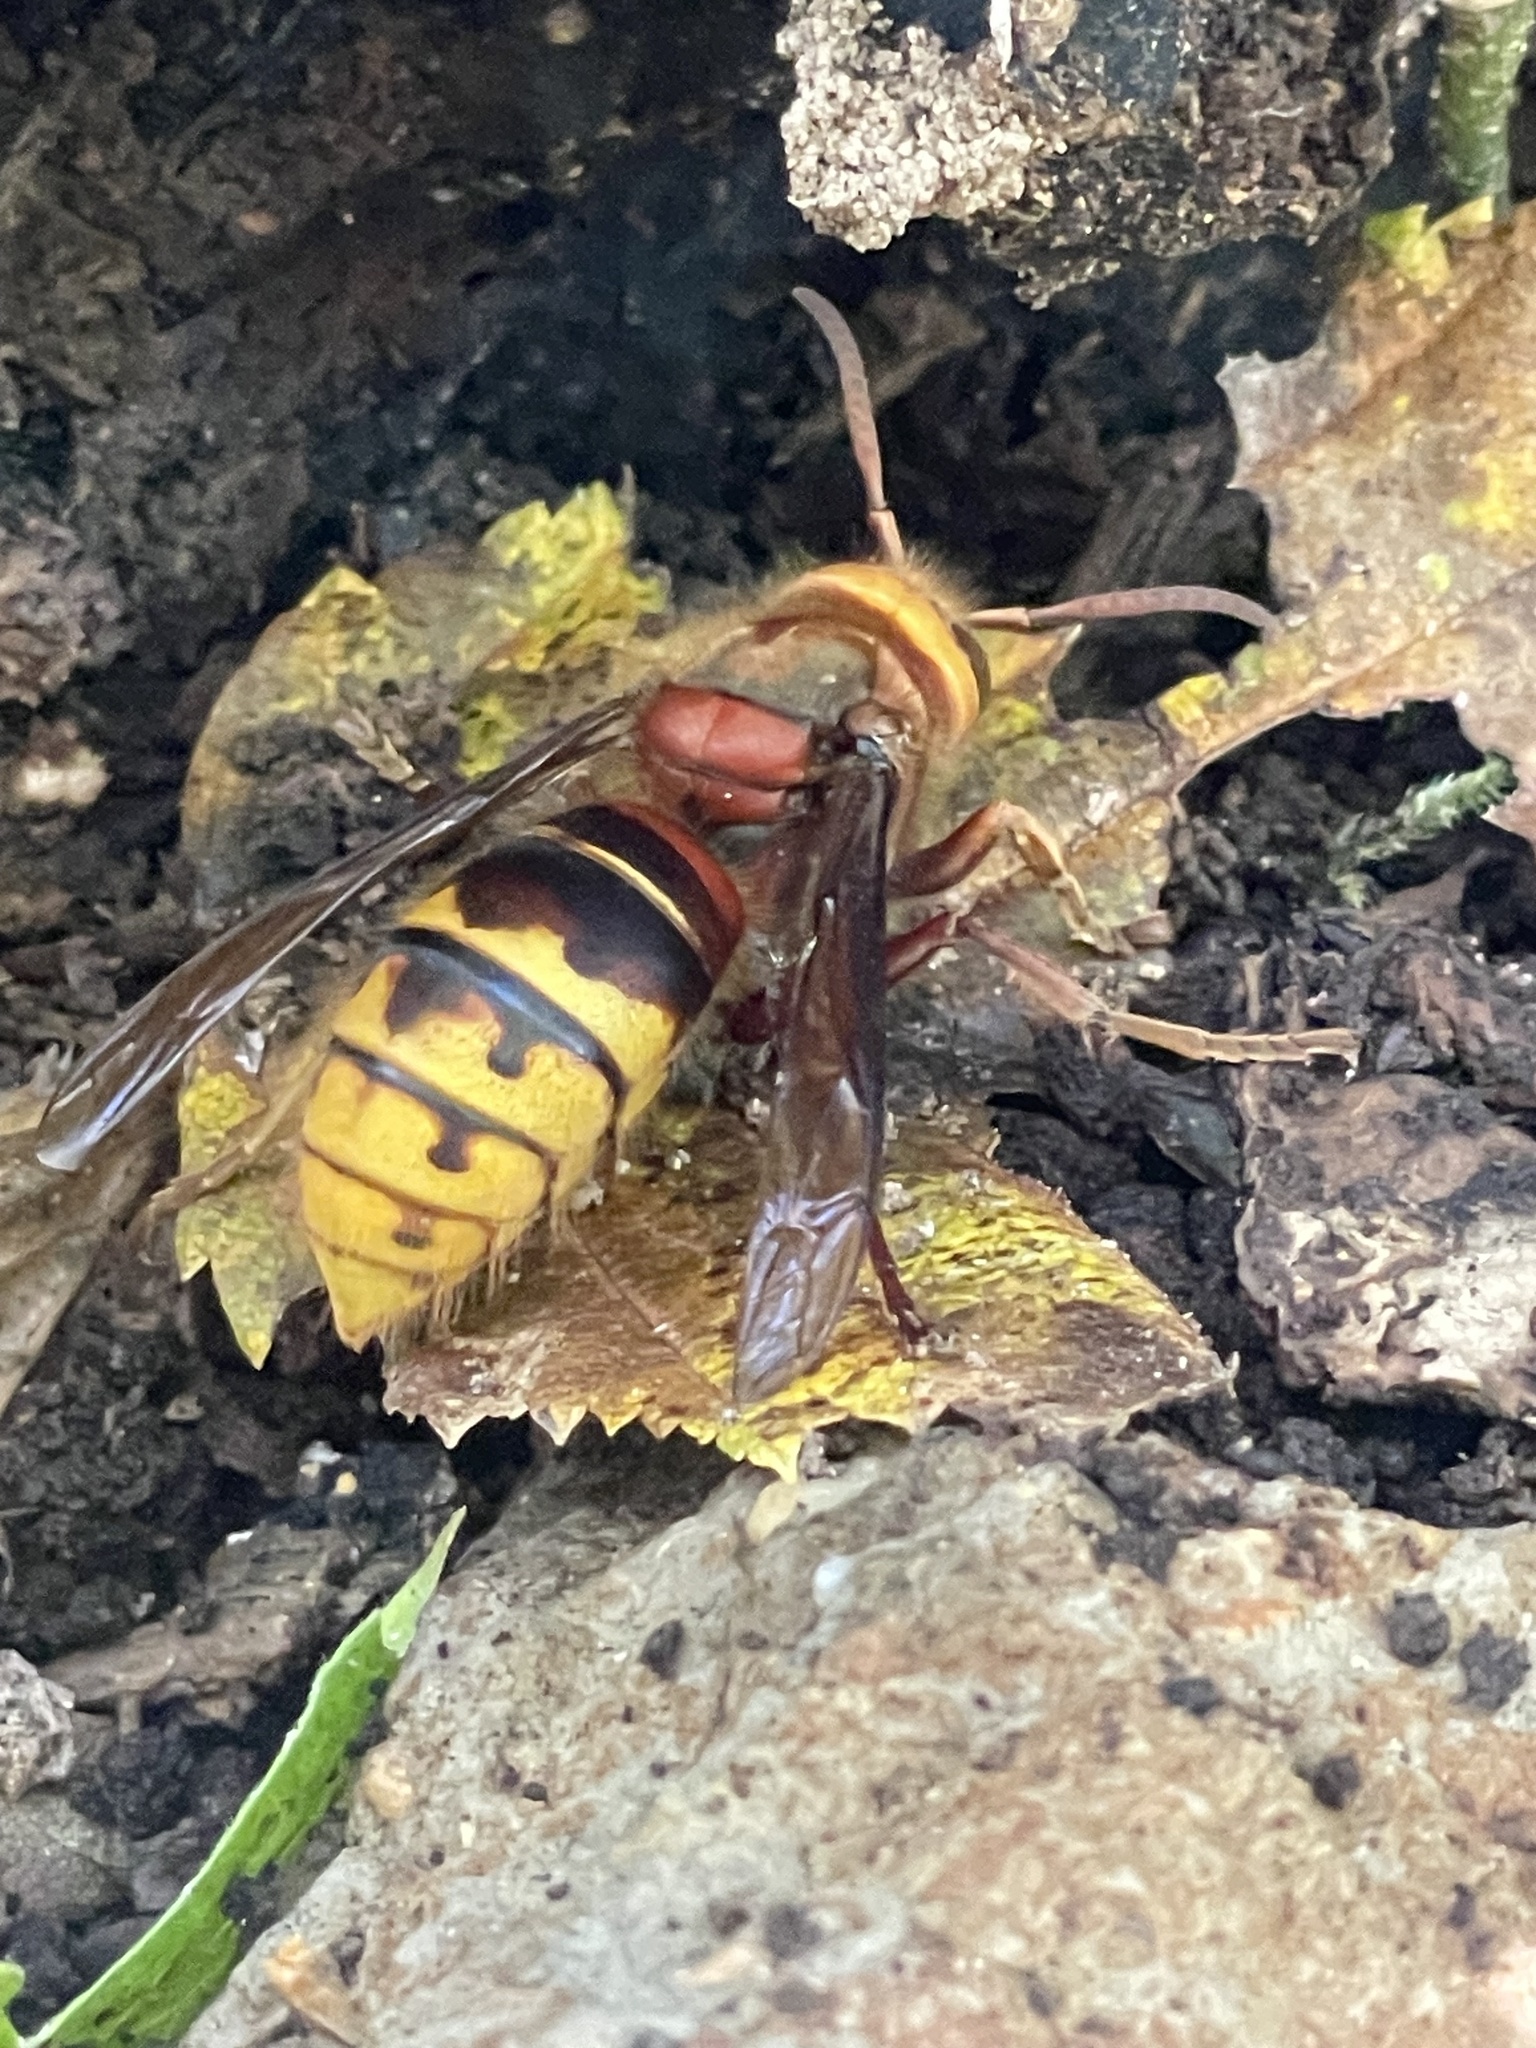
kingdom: Animalia
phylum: Arthropoda
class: Insecta
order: Hymenoptera
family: Vespidae
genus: Vespa
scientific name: Vespa crabro
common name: Hornet
